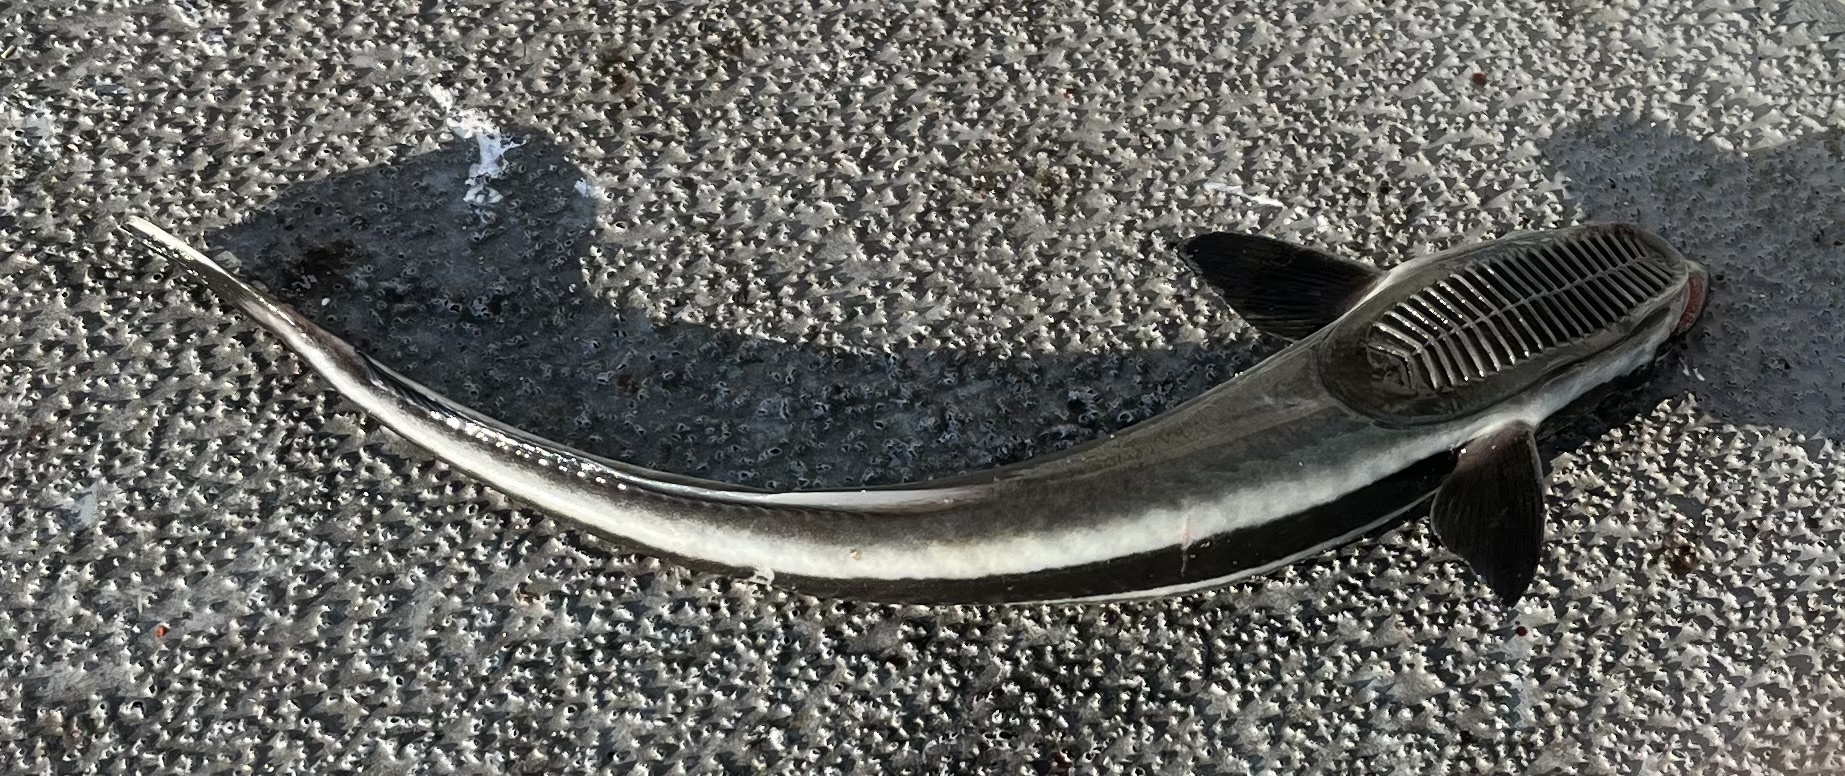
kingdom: Animalia
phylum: Chordata
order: Perciformes
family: Echeneidae
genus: Echeneis
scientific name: Echeneis naucrates
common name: Sharksucker
